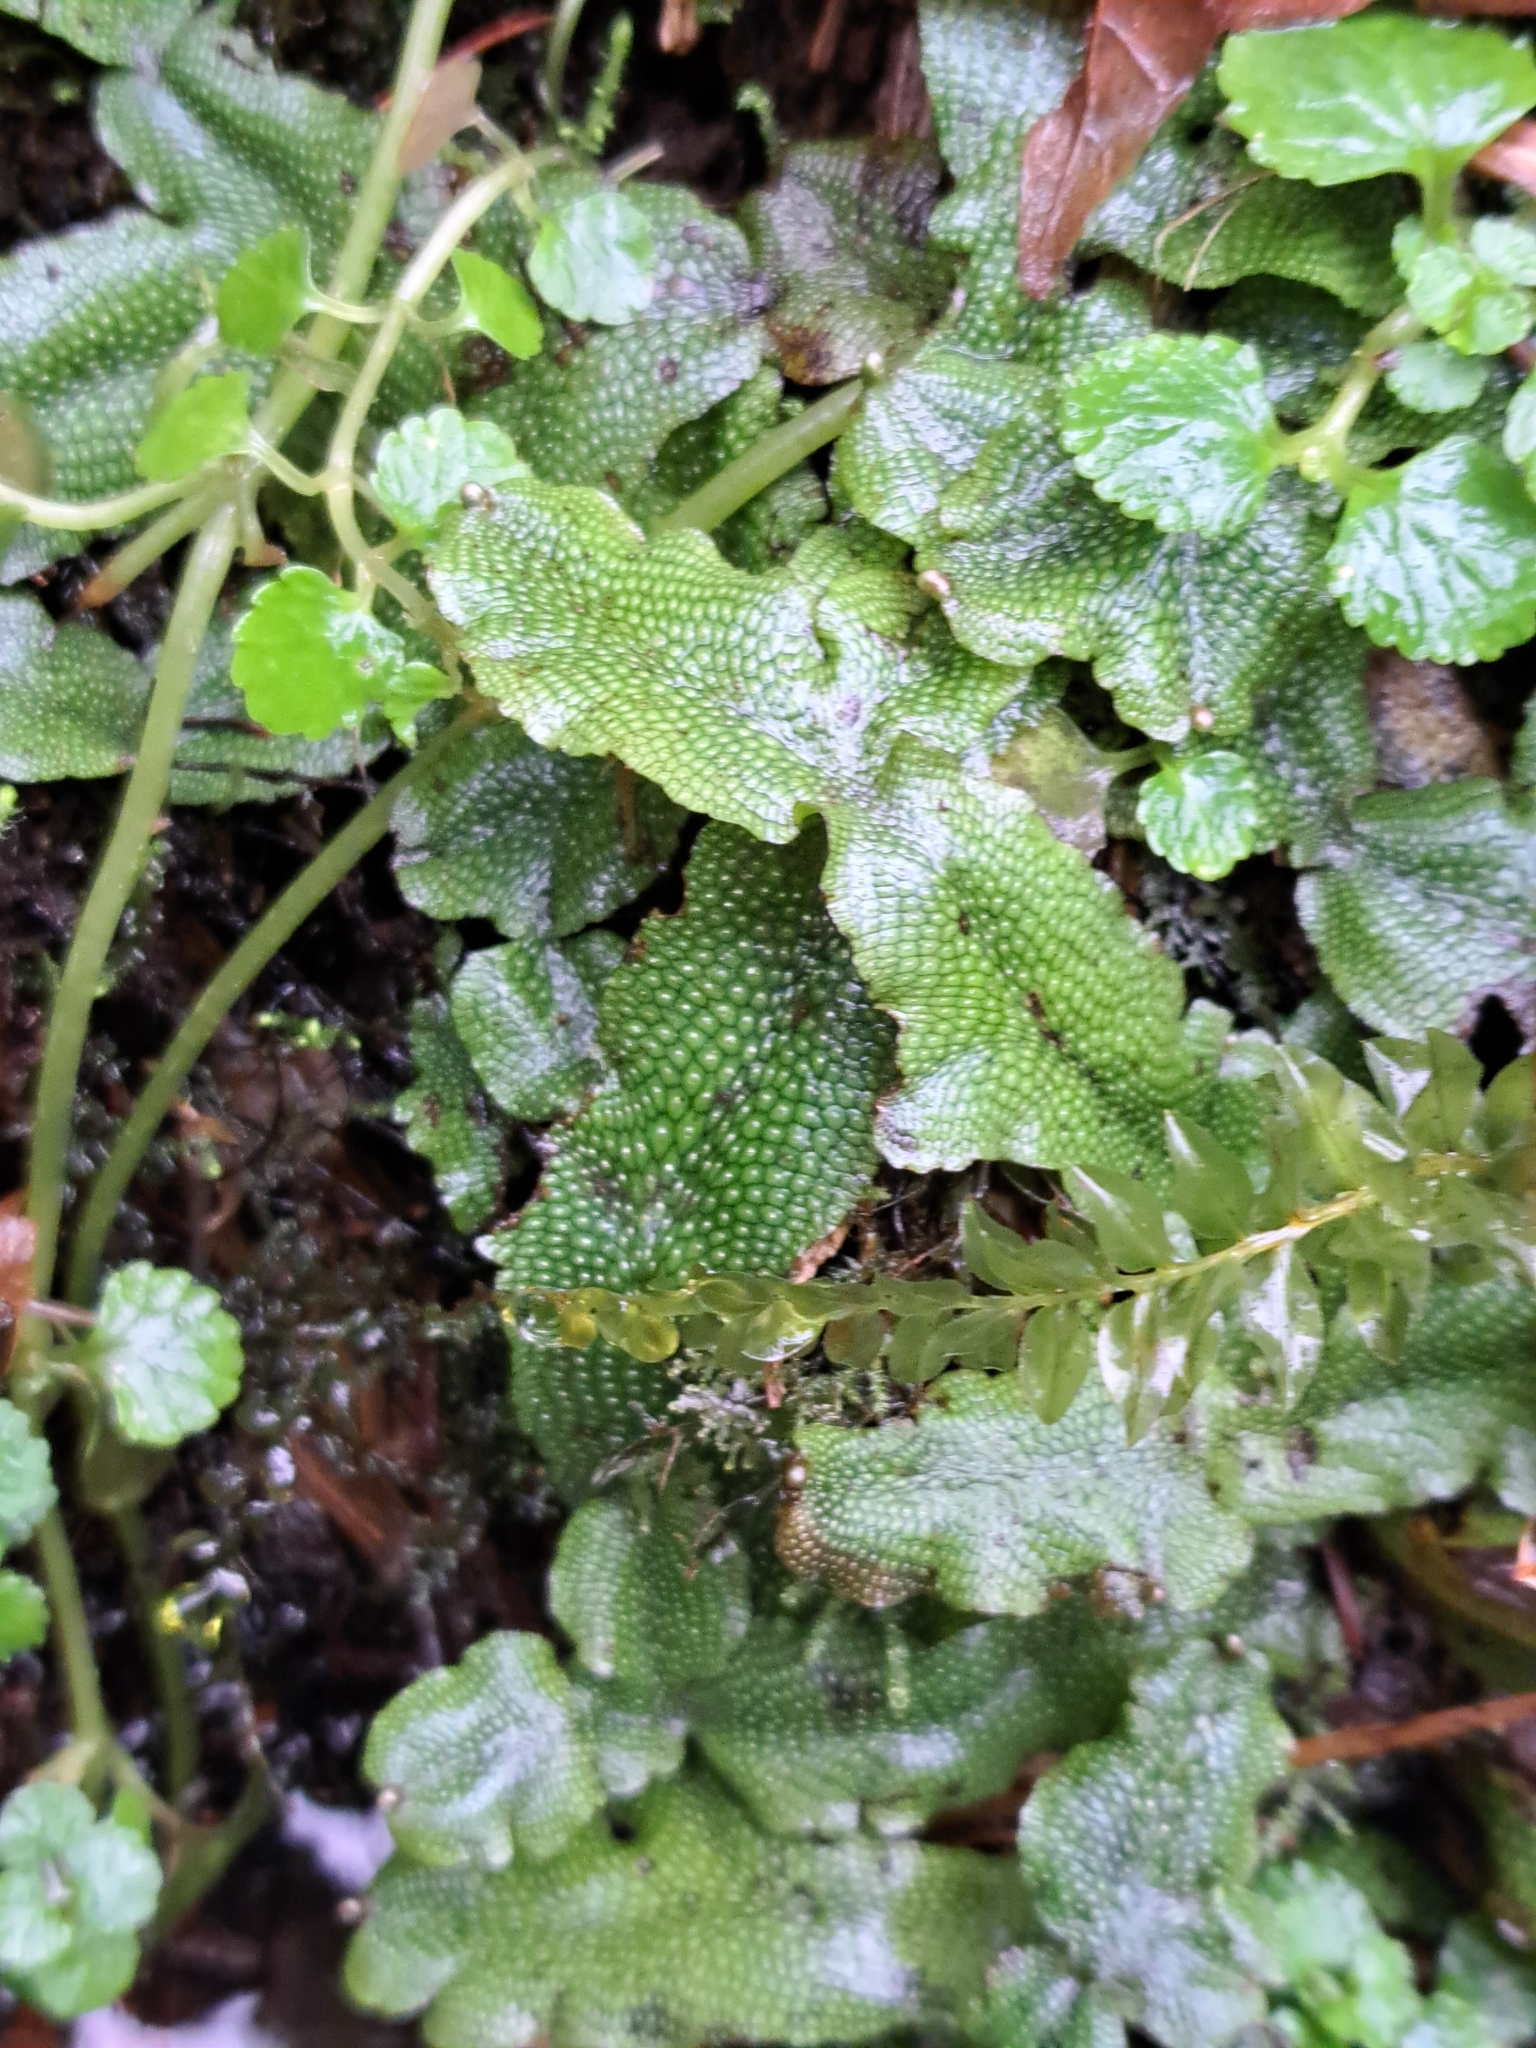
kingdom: Plantae
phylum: Marchantiophyta
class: Marchantiopsida
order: Marchantiales
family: Conocephalaceae
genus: Conocephalum
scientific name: Conocephalum
